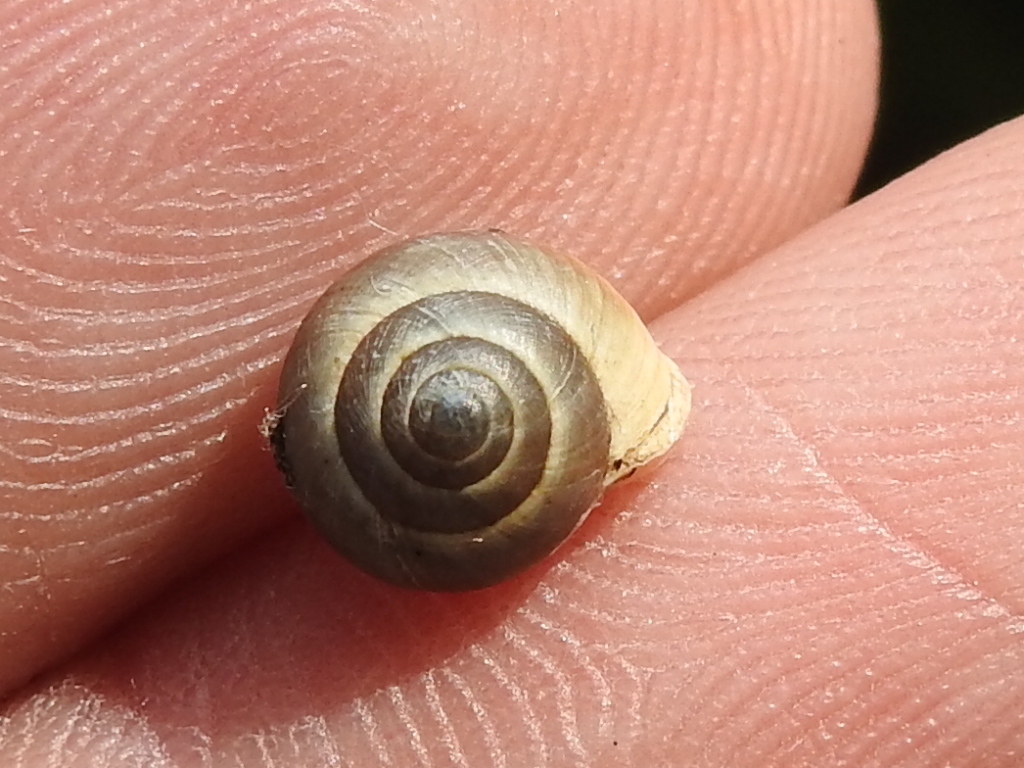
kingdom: Animalia
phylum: Mollusca
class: Gastropoda
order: Cycloneritida
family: Helicinidae
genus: Helicina
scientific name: Helicina orbiculata
